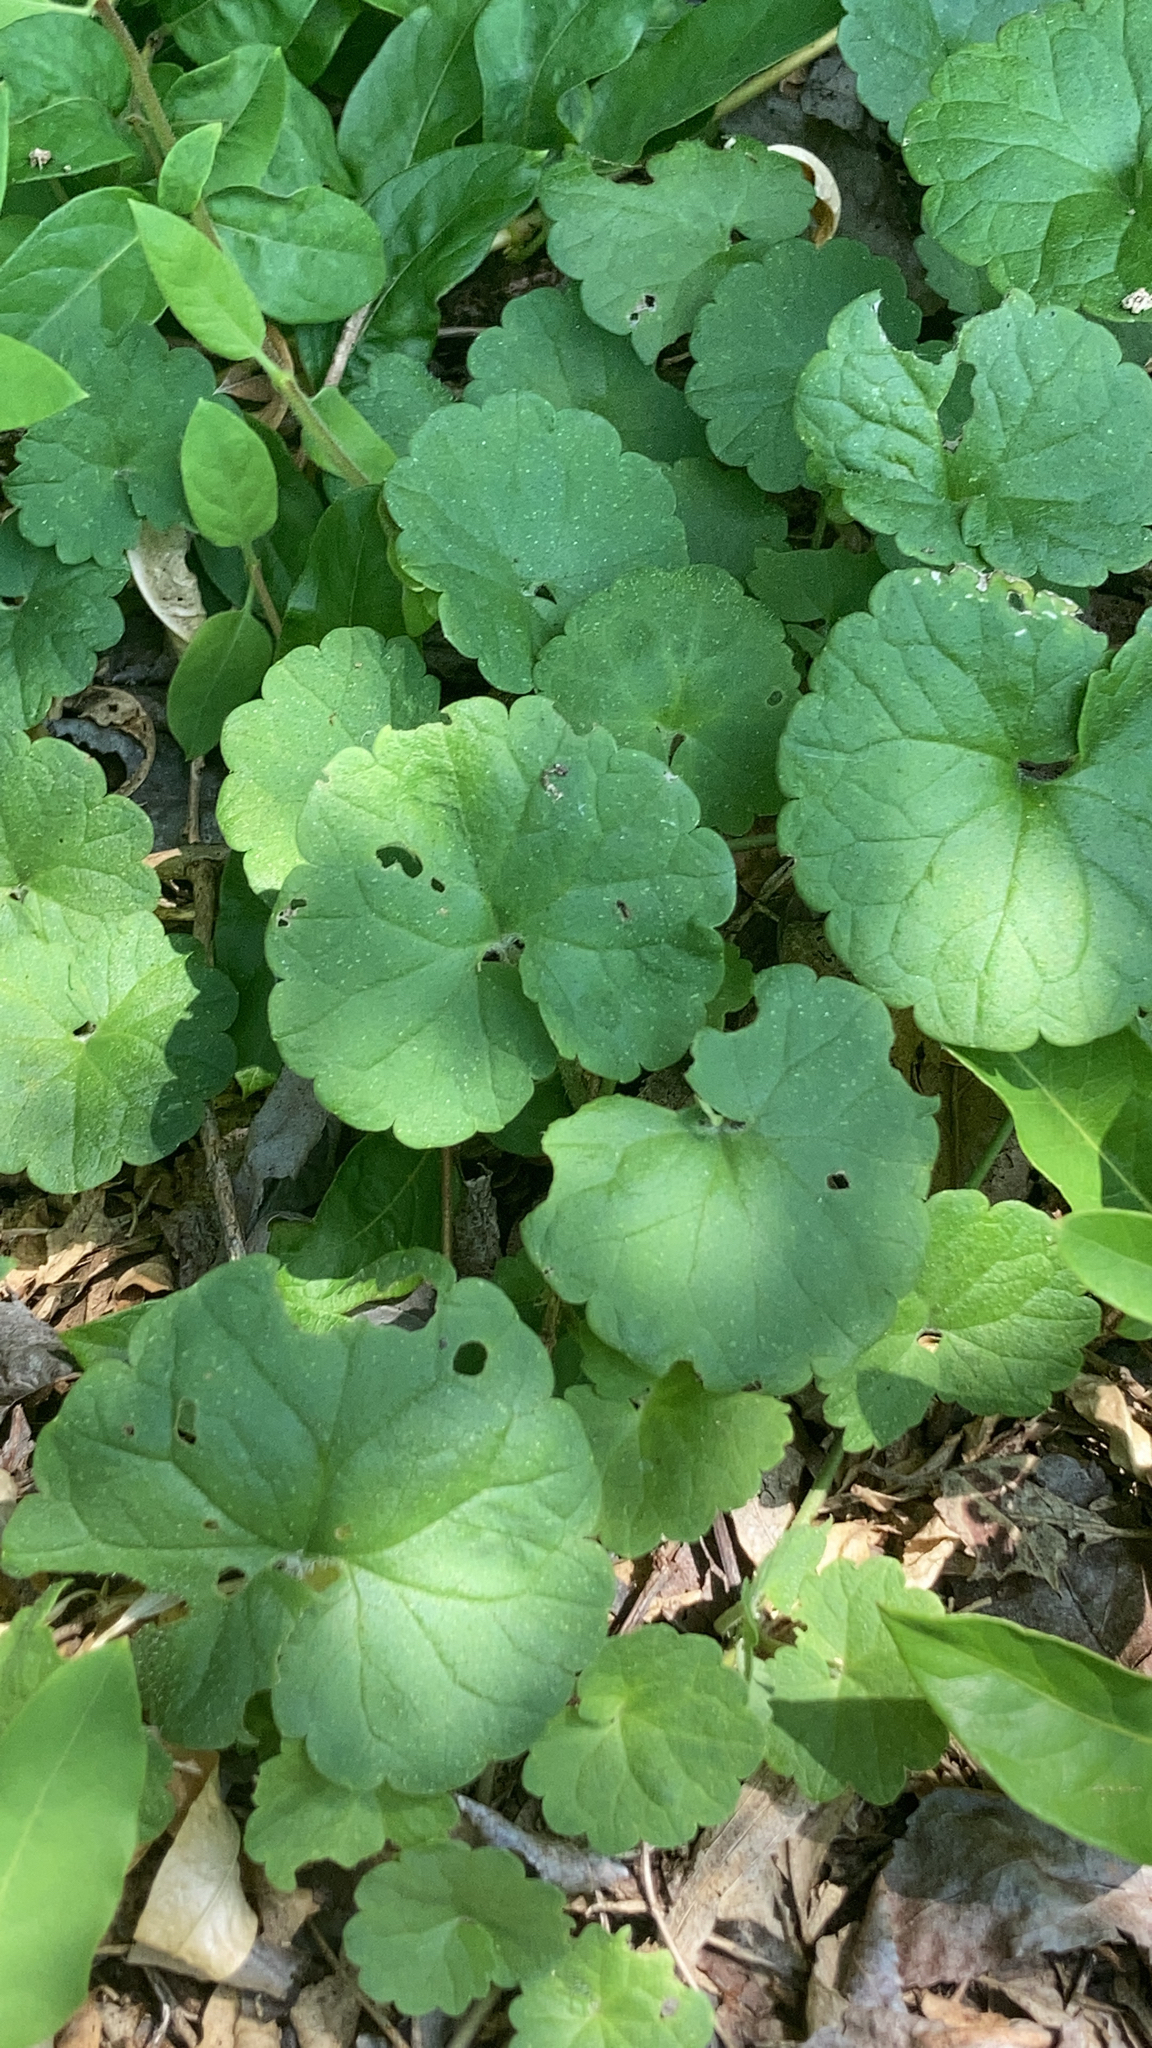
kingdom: Plantae
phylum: Tracheophyta
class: Magnoliopsida
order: Lamiales
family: Lamiaceae
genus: Glechoma
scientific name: Glechoma hederacea
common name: Ground ivy
